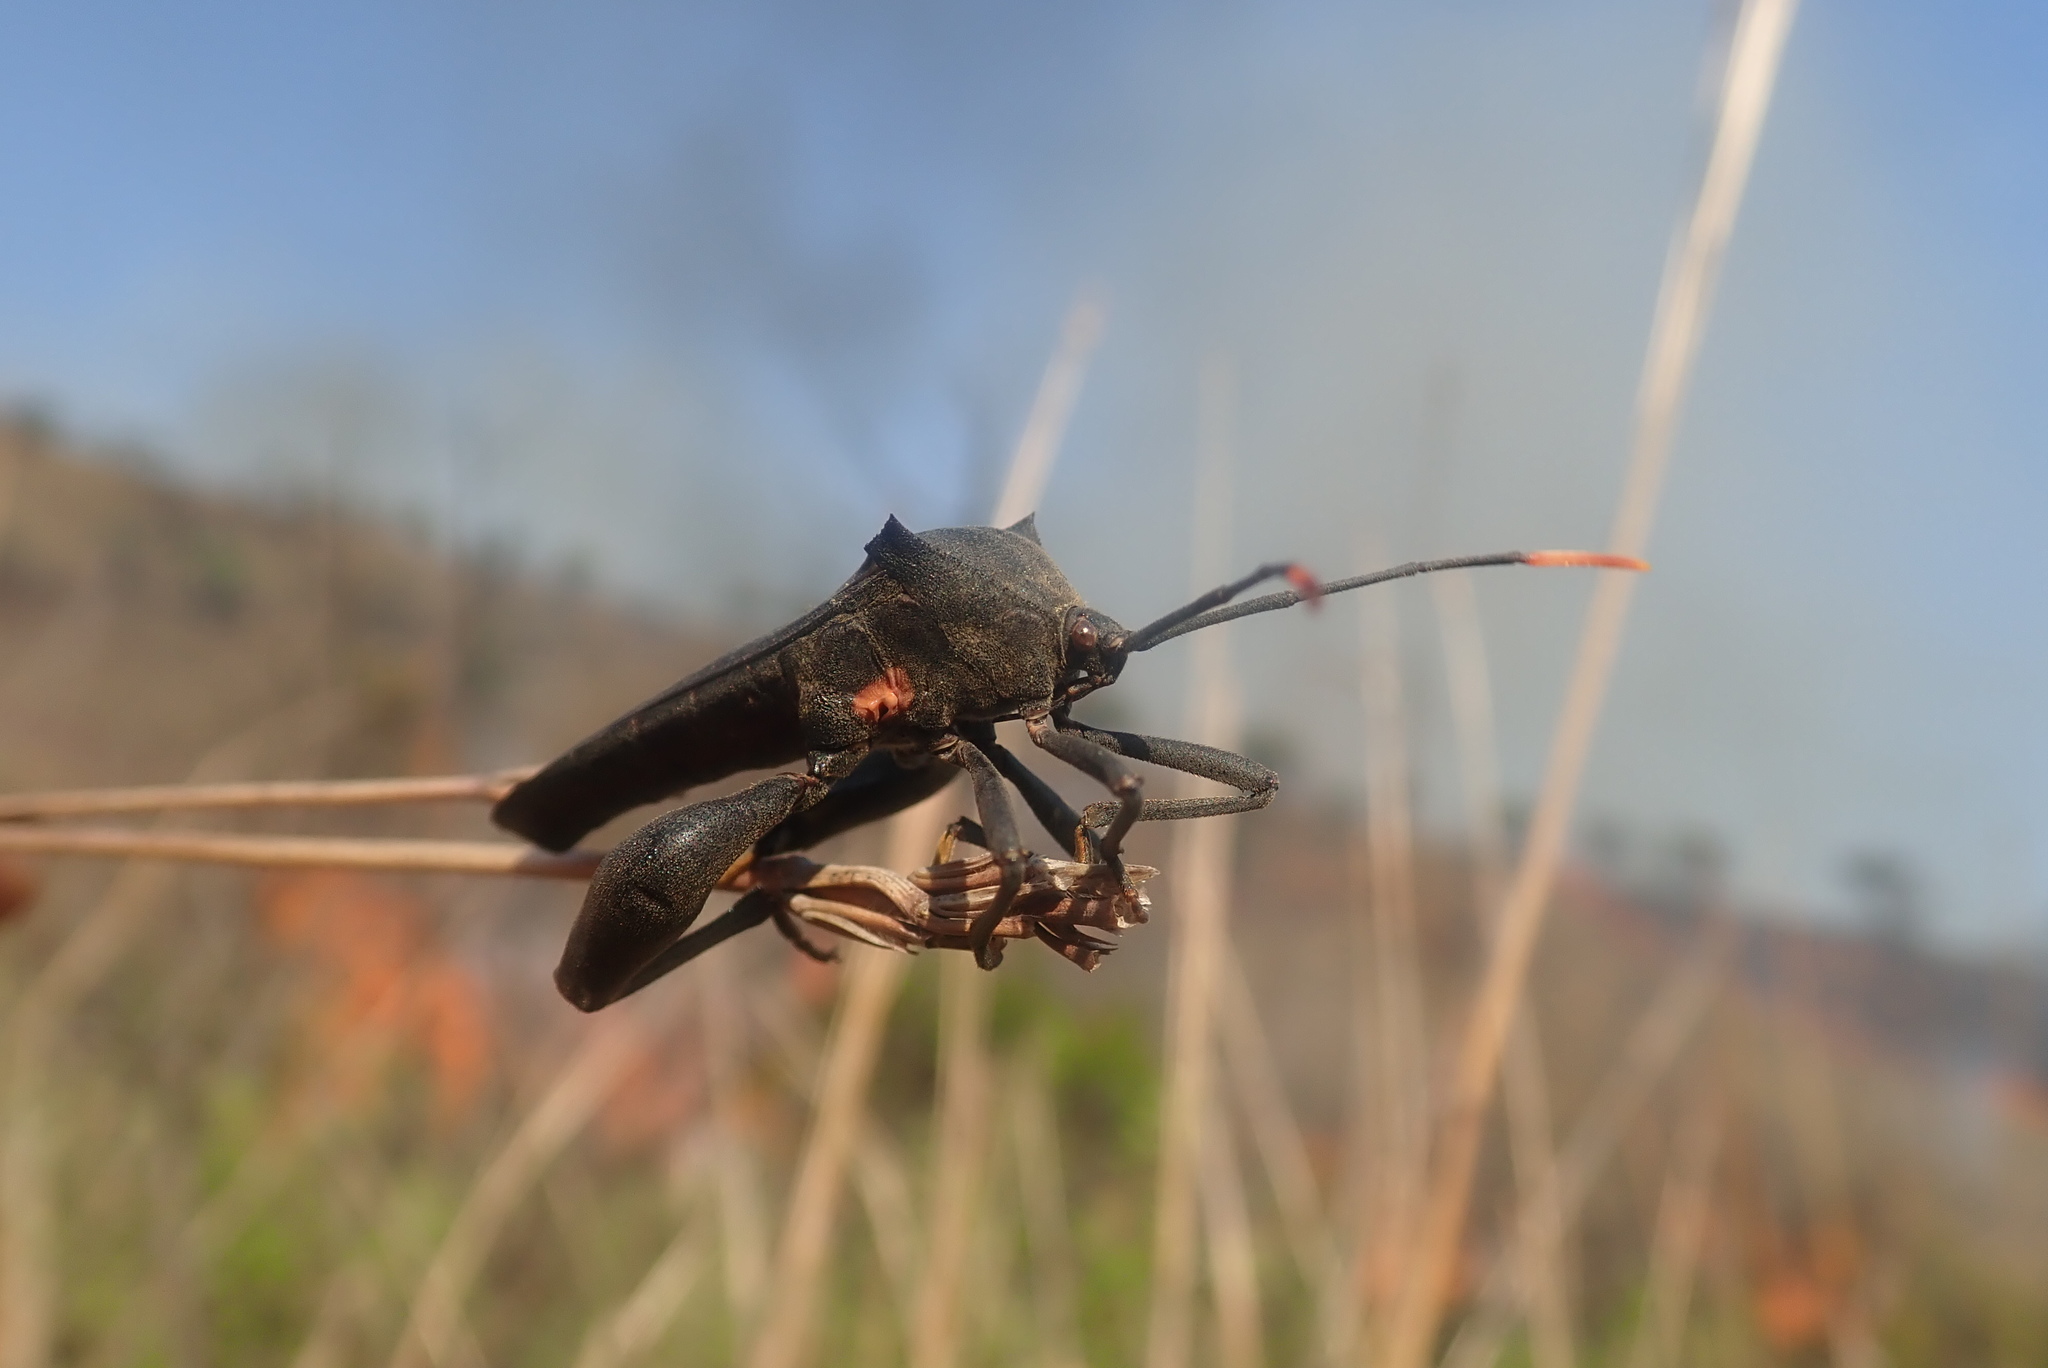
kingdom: Animalia
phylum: Arthropoda
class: Insecta
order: Hemiptera
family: Coreidae
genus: Anoplocnemis
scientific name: Anoplocnemis curvipes
